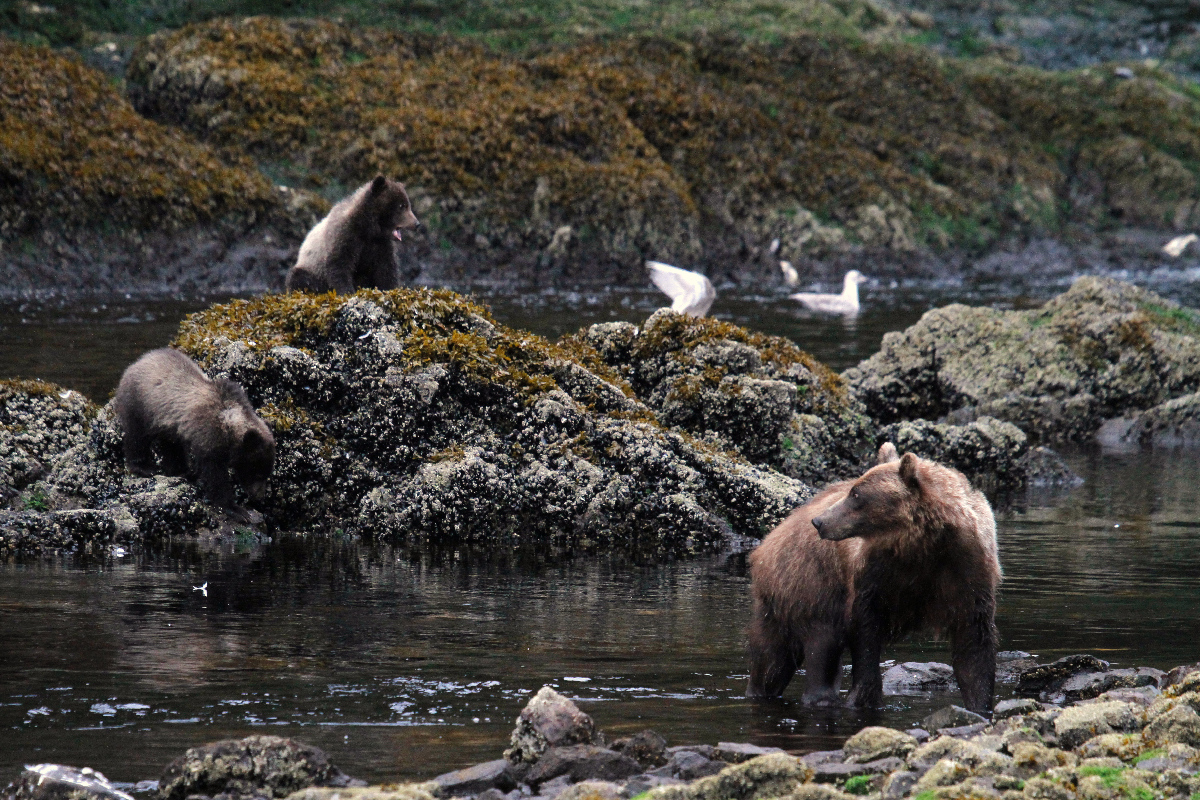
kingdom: Animalia
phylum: Chordata
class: Mammalia
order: Carnivora
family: Ursidae
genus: Ursus
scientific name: Ursus arctos
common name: Brown bear
